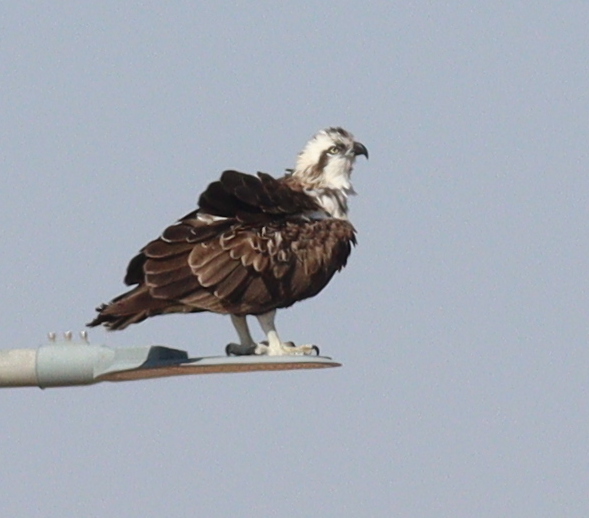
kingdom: Animalia
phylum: Chordata
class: Aves
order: Accipitriformes
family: Pandionidae
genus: Pandion
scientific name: Pandion haliaetus
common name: Osprey
